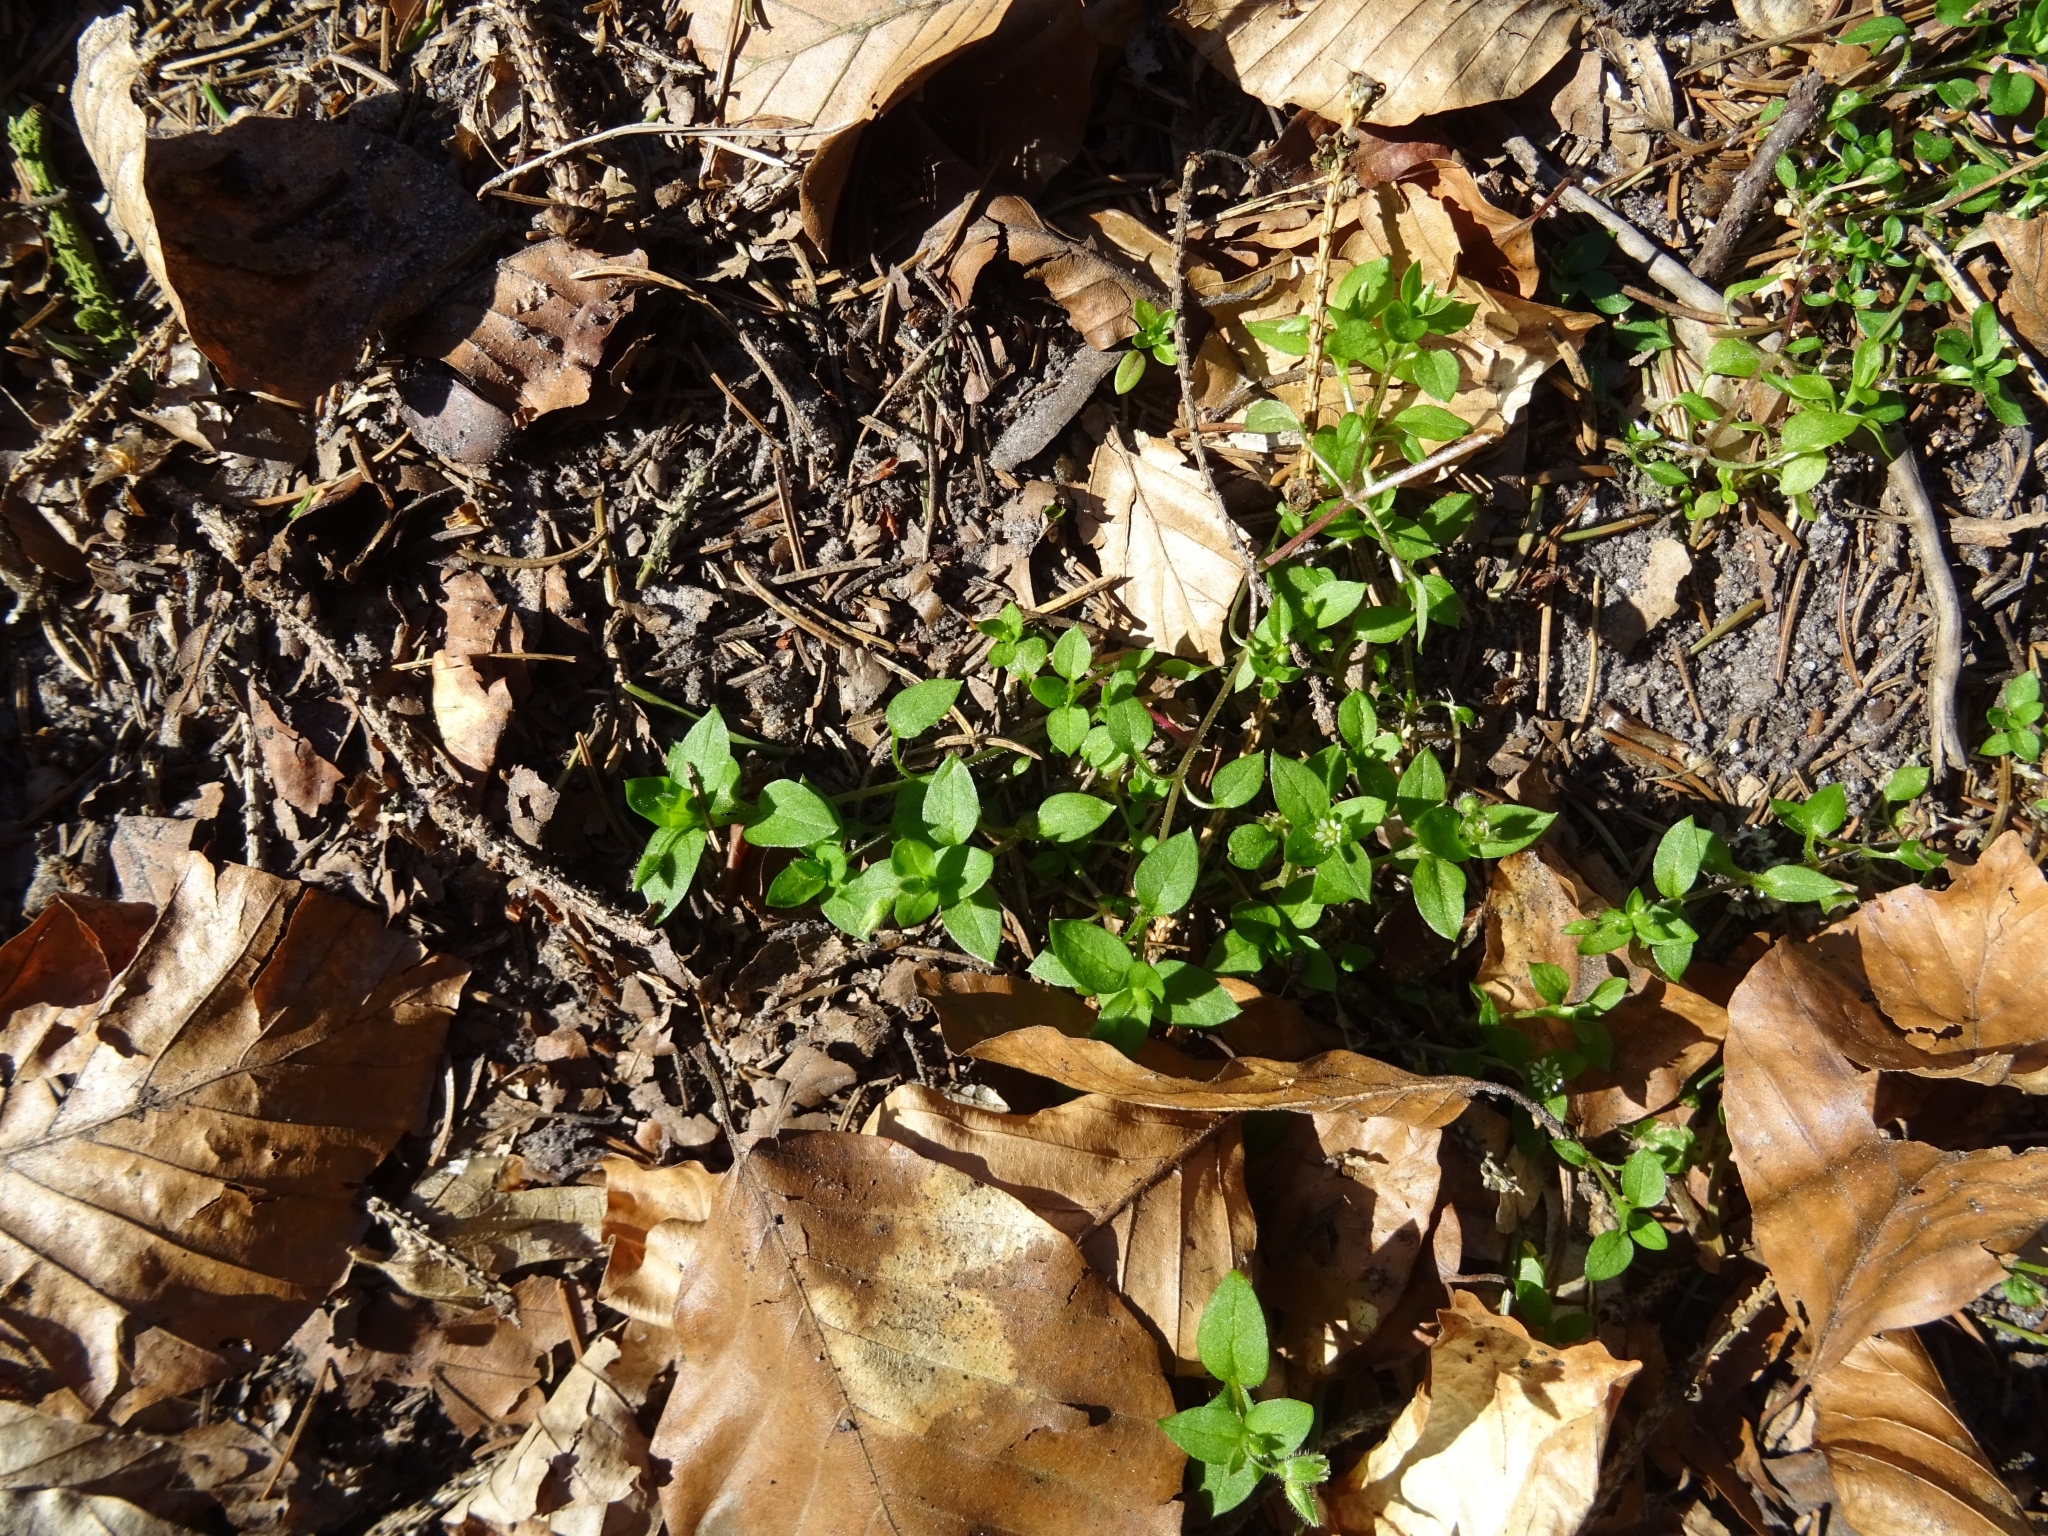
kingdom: Plantae
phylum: Tracheophyta
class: Magnoliopsida
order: Caryophyllales
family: Caryophyllaceae
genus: Stellaria
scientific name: Stellaria media
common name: Common chickweed
